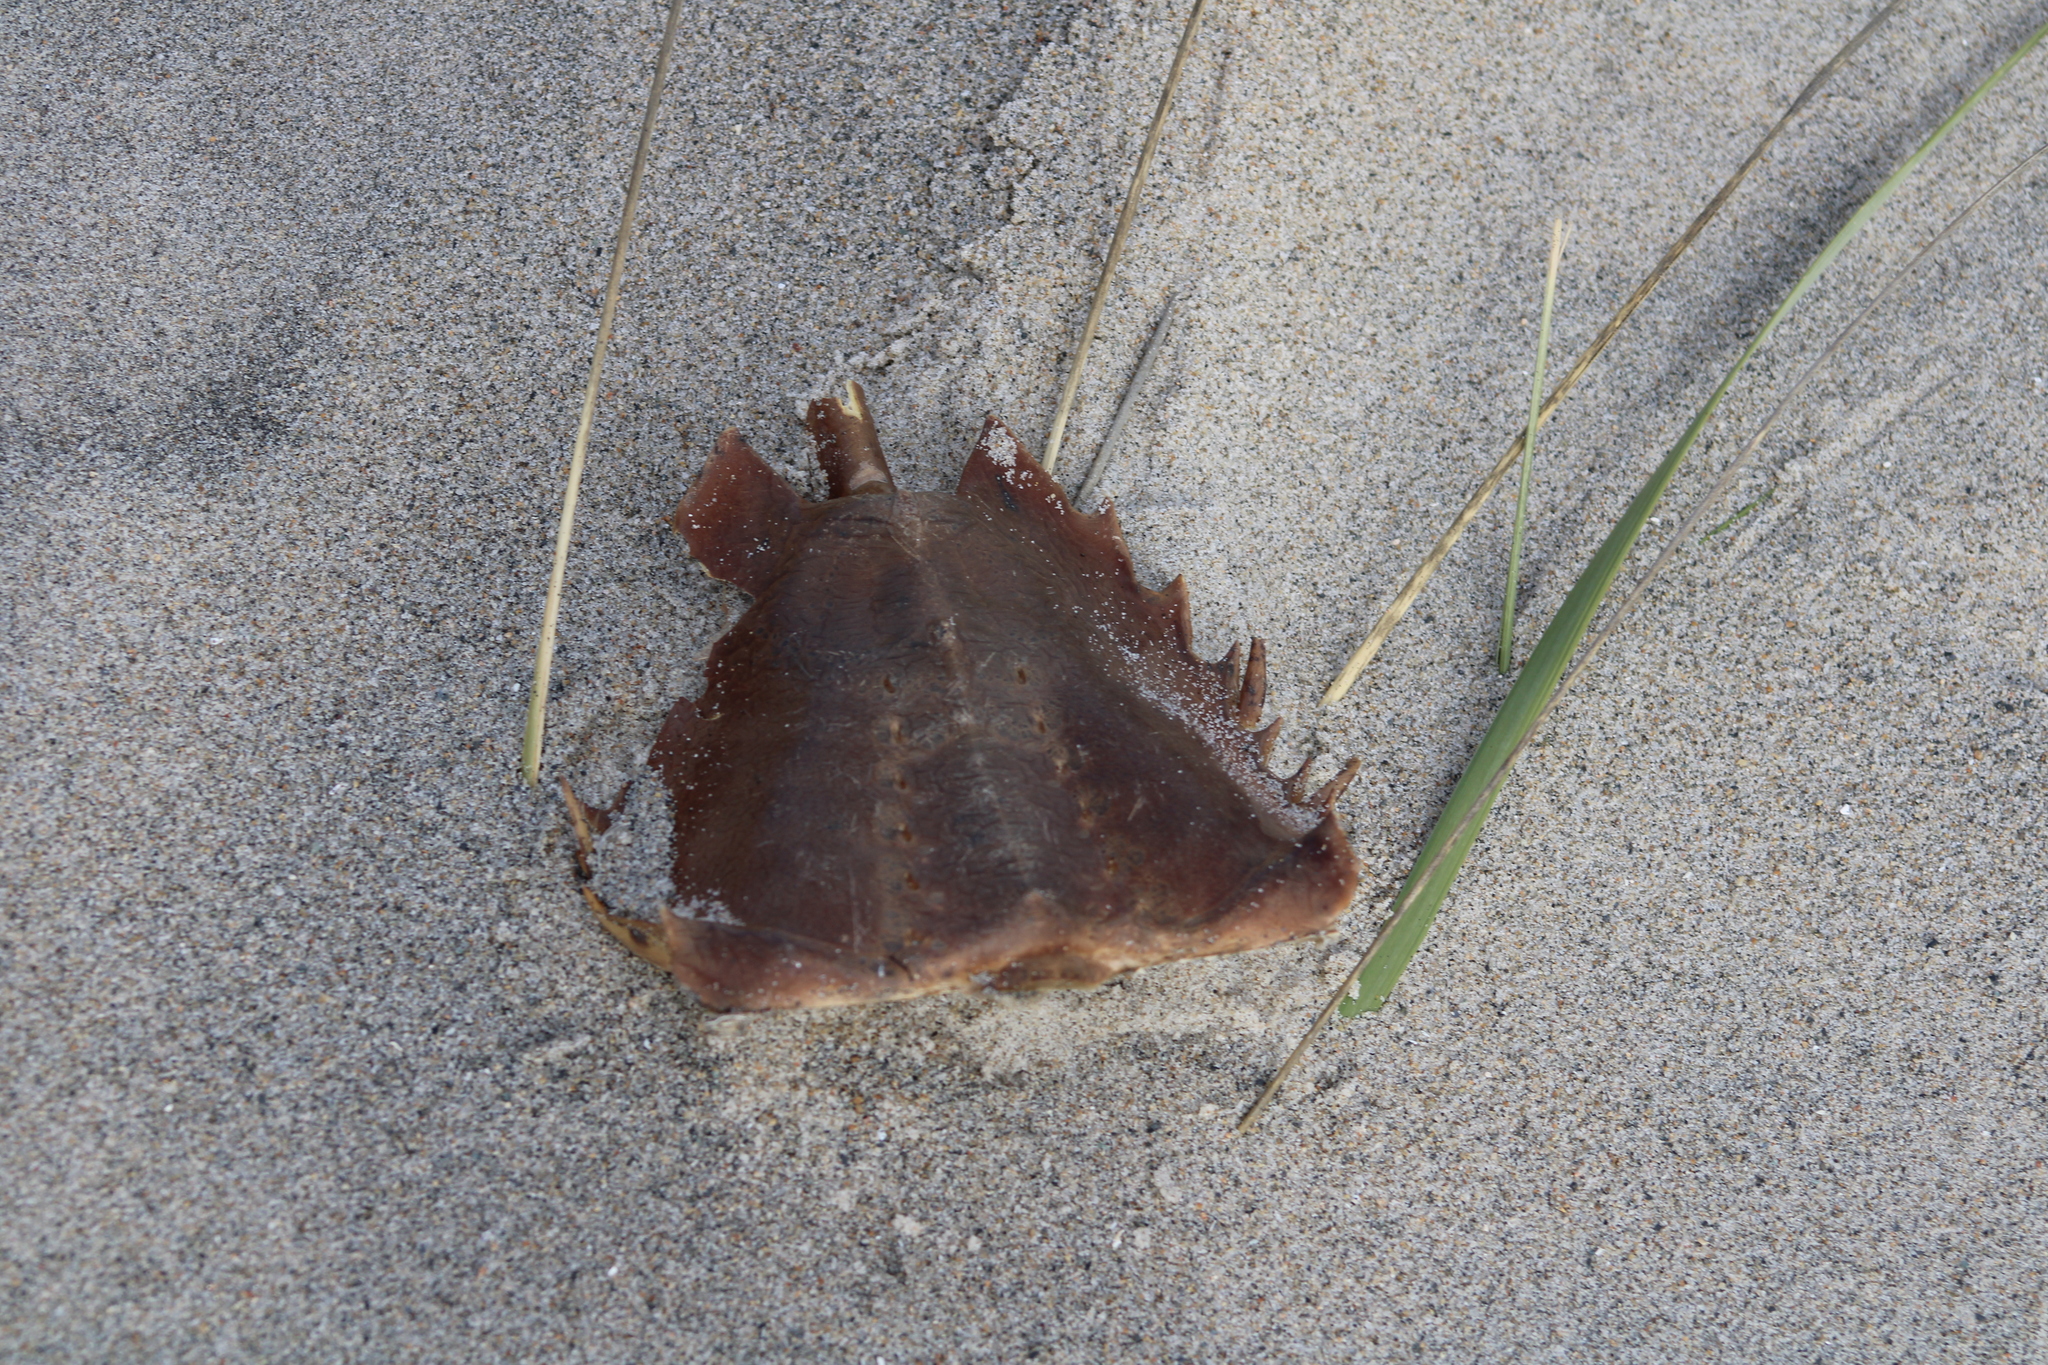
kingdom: Animalia
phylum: Arthropoda
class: Merostomata
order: Xiphosurida
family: Limulidae
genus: Limulus
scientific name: Limulus polyphemus
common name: Horseshoe crab
